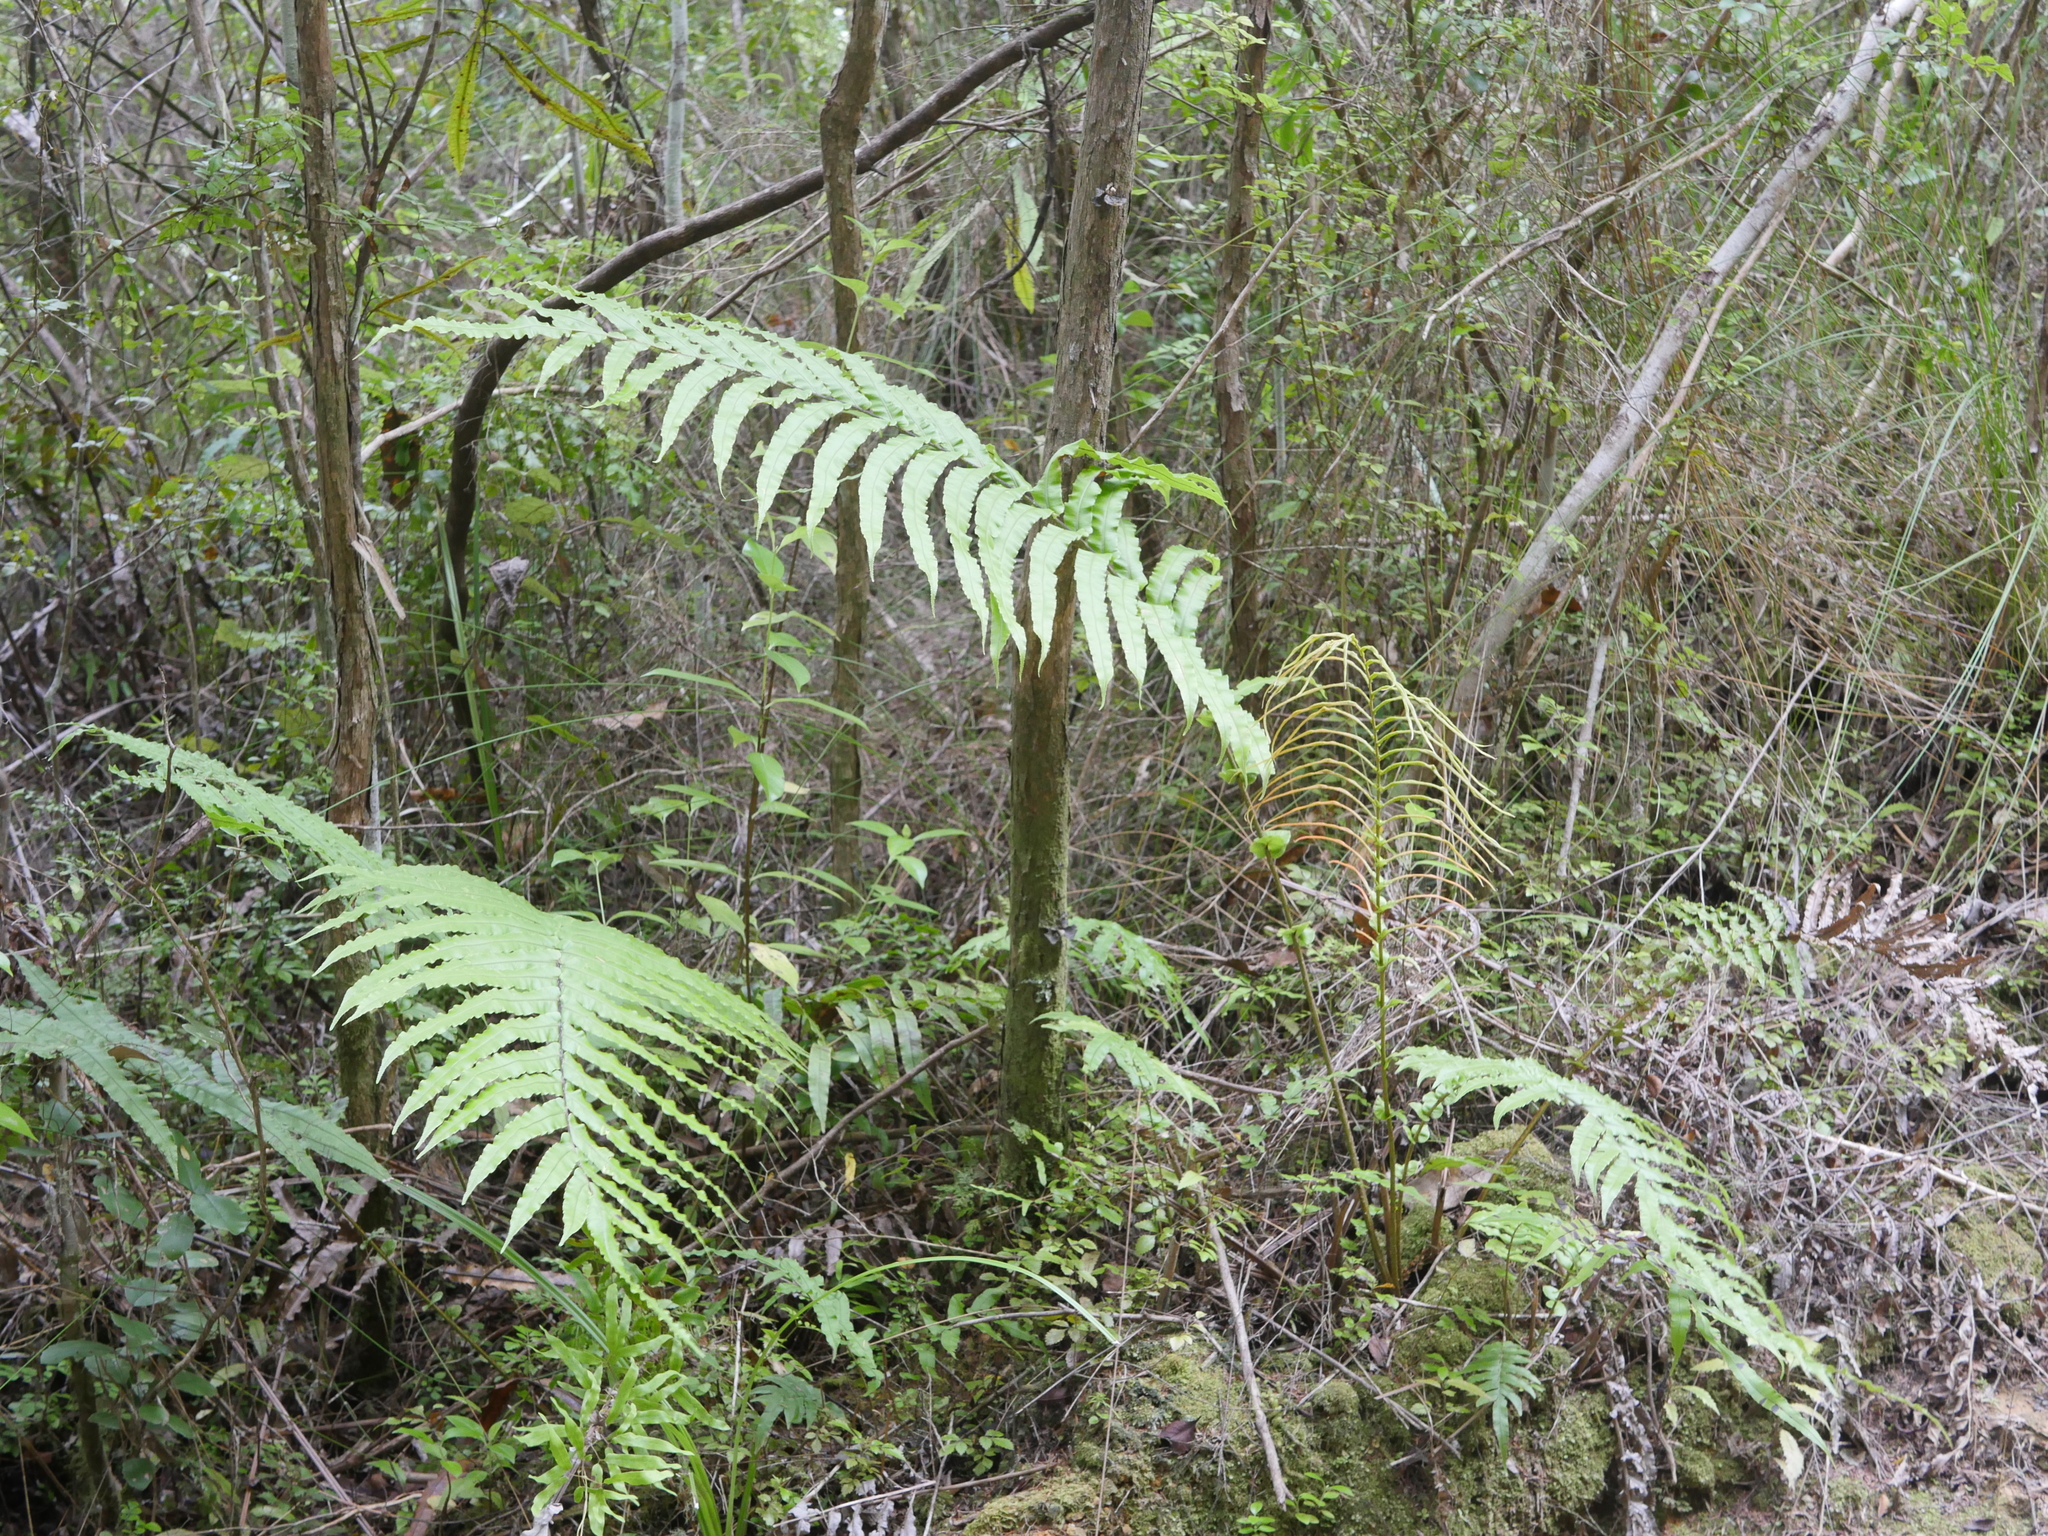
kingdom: Plantae
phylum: Tracheophyta
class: Polypodiopsida
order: Polypodiales
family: Blechnaceae
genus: Parablechnum
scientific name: Parablechnum novae-zelandiae
